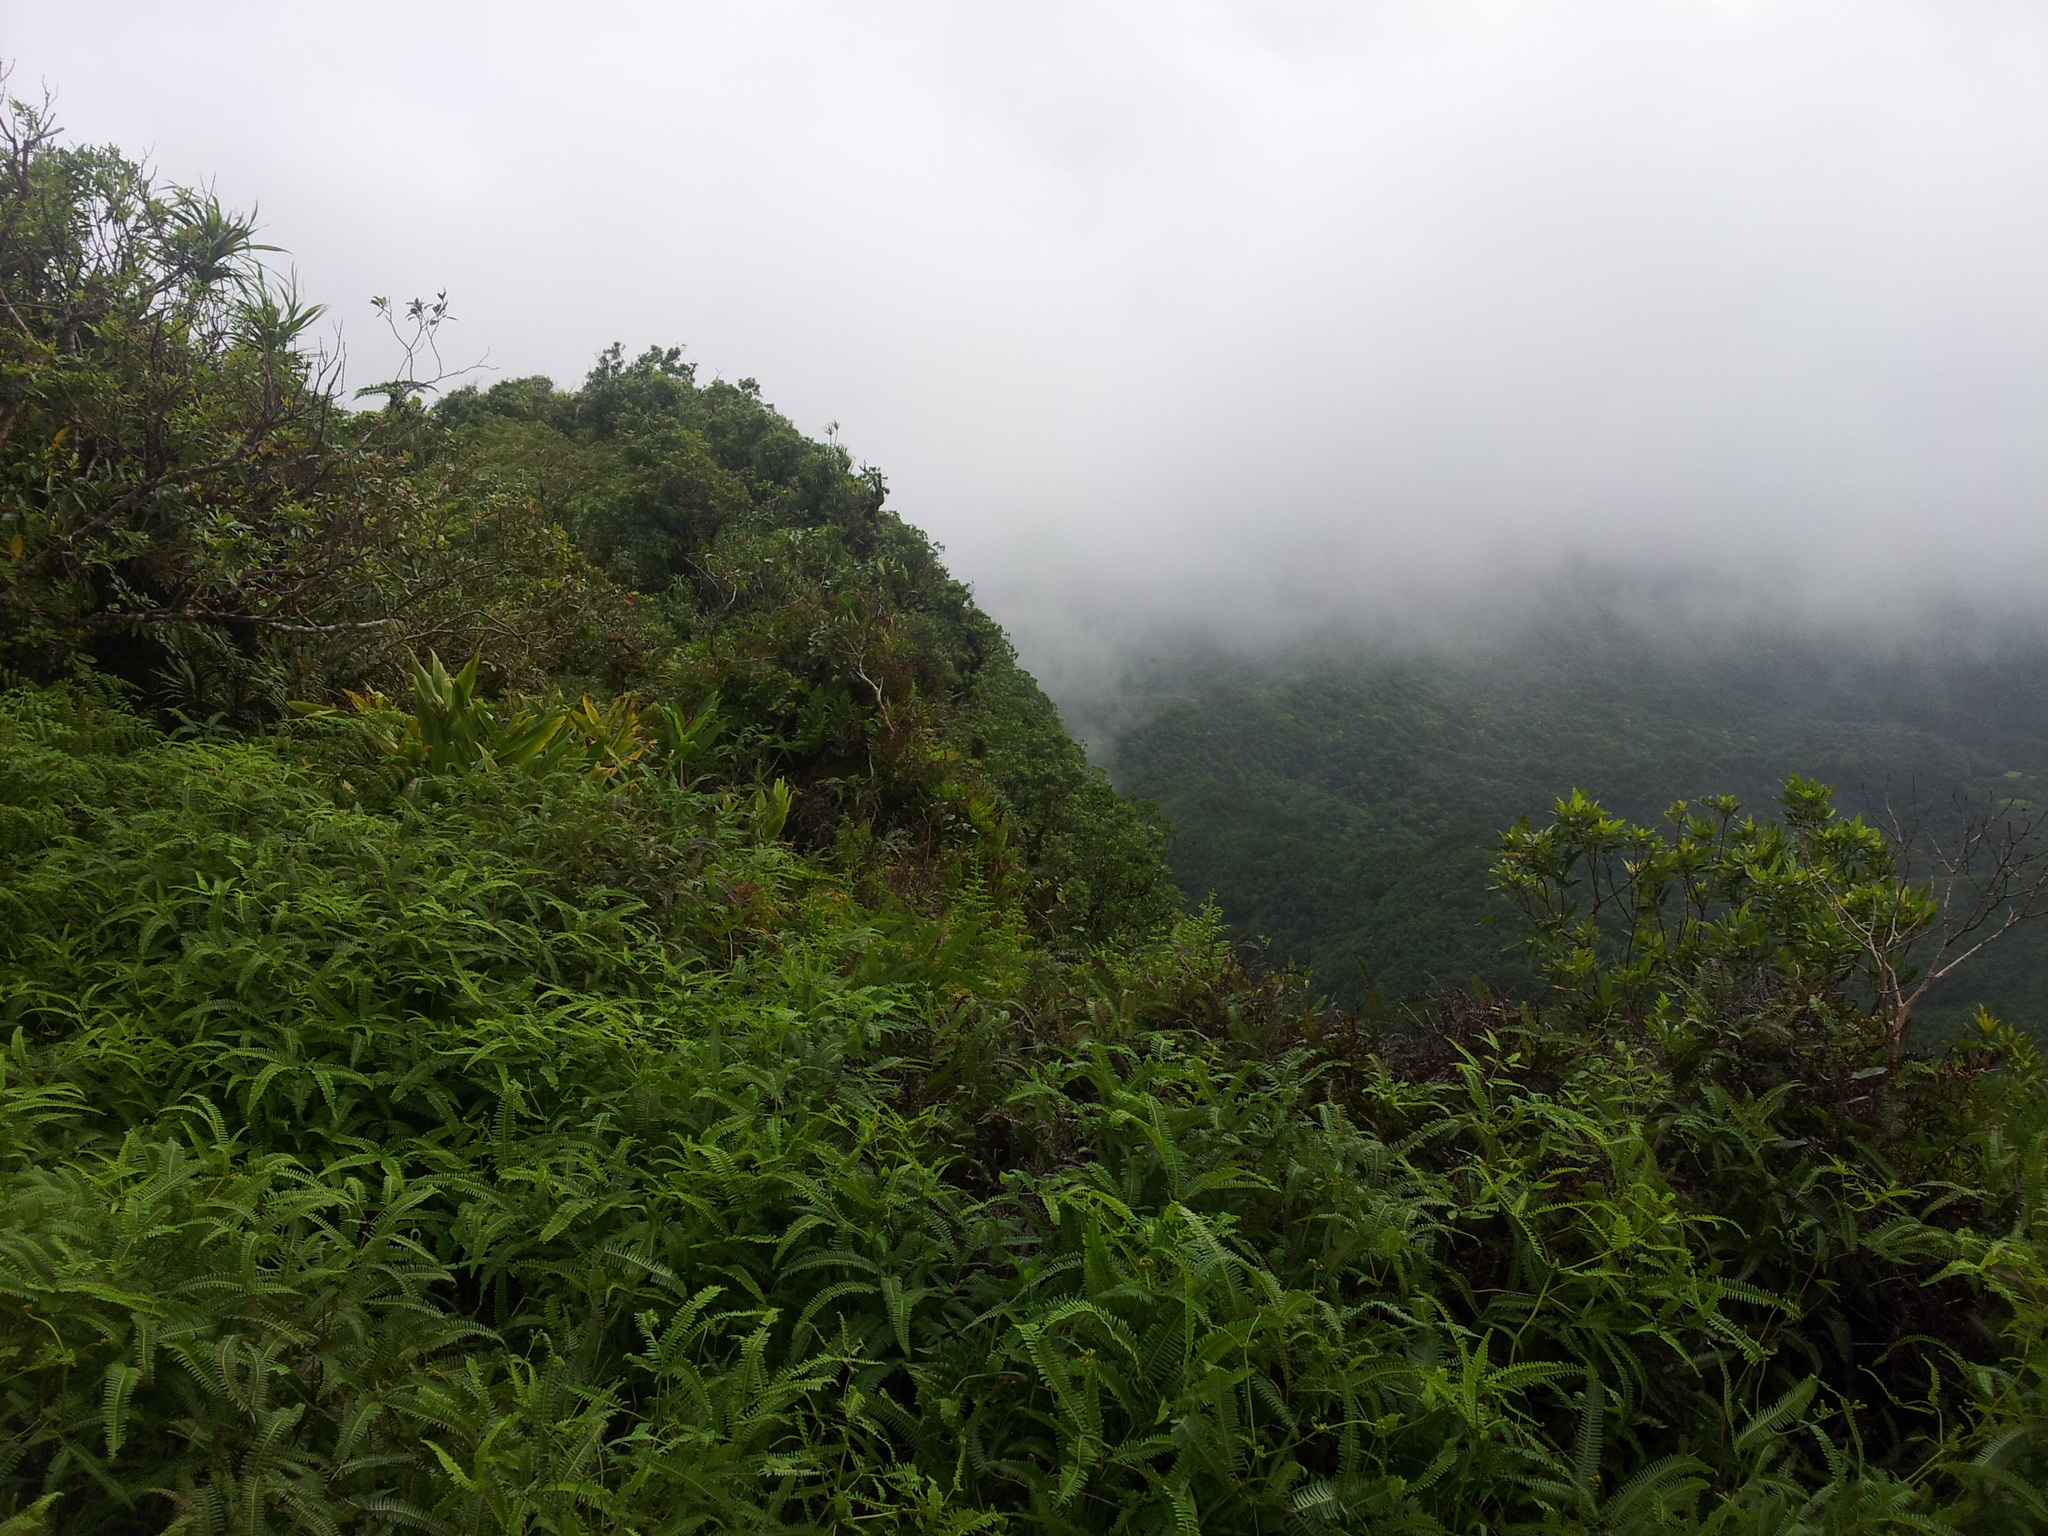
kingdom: Plantae
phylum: Tracheophyta
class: Polypodiopsida
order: Gleicheniales
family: Gleicheniaceae
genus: Dicranopteris
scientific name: Dicranopteris linearis
